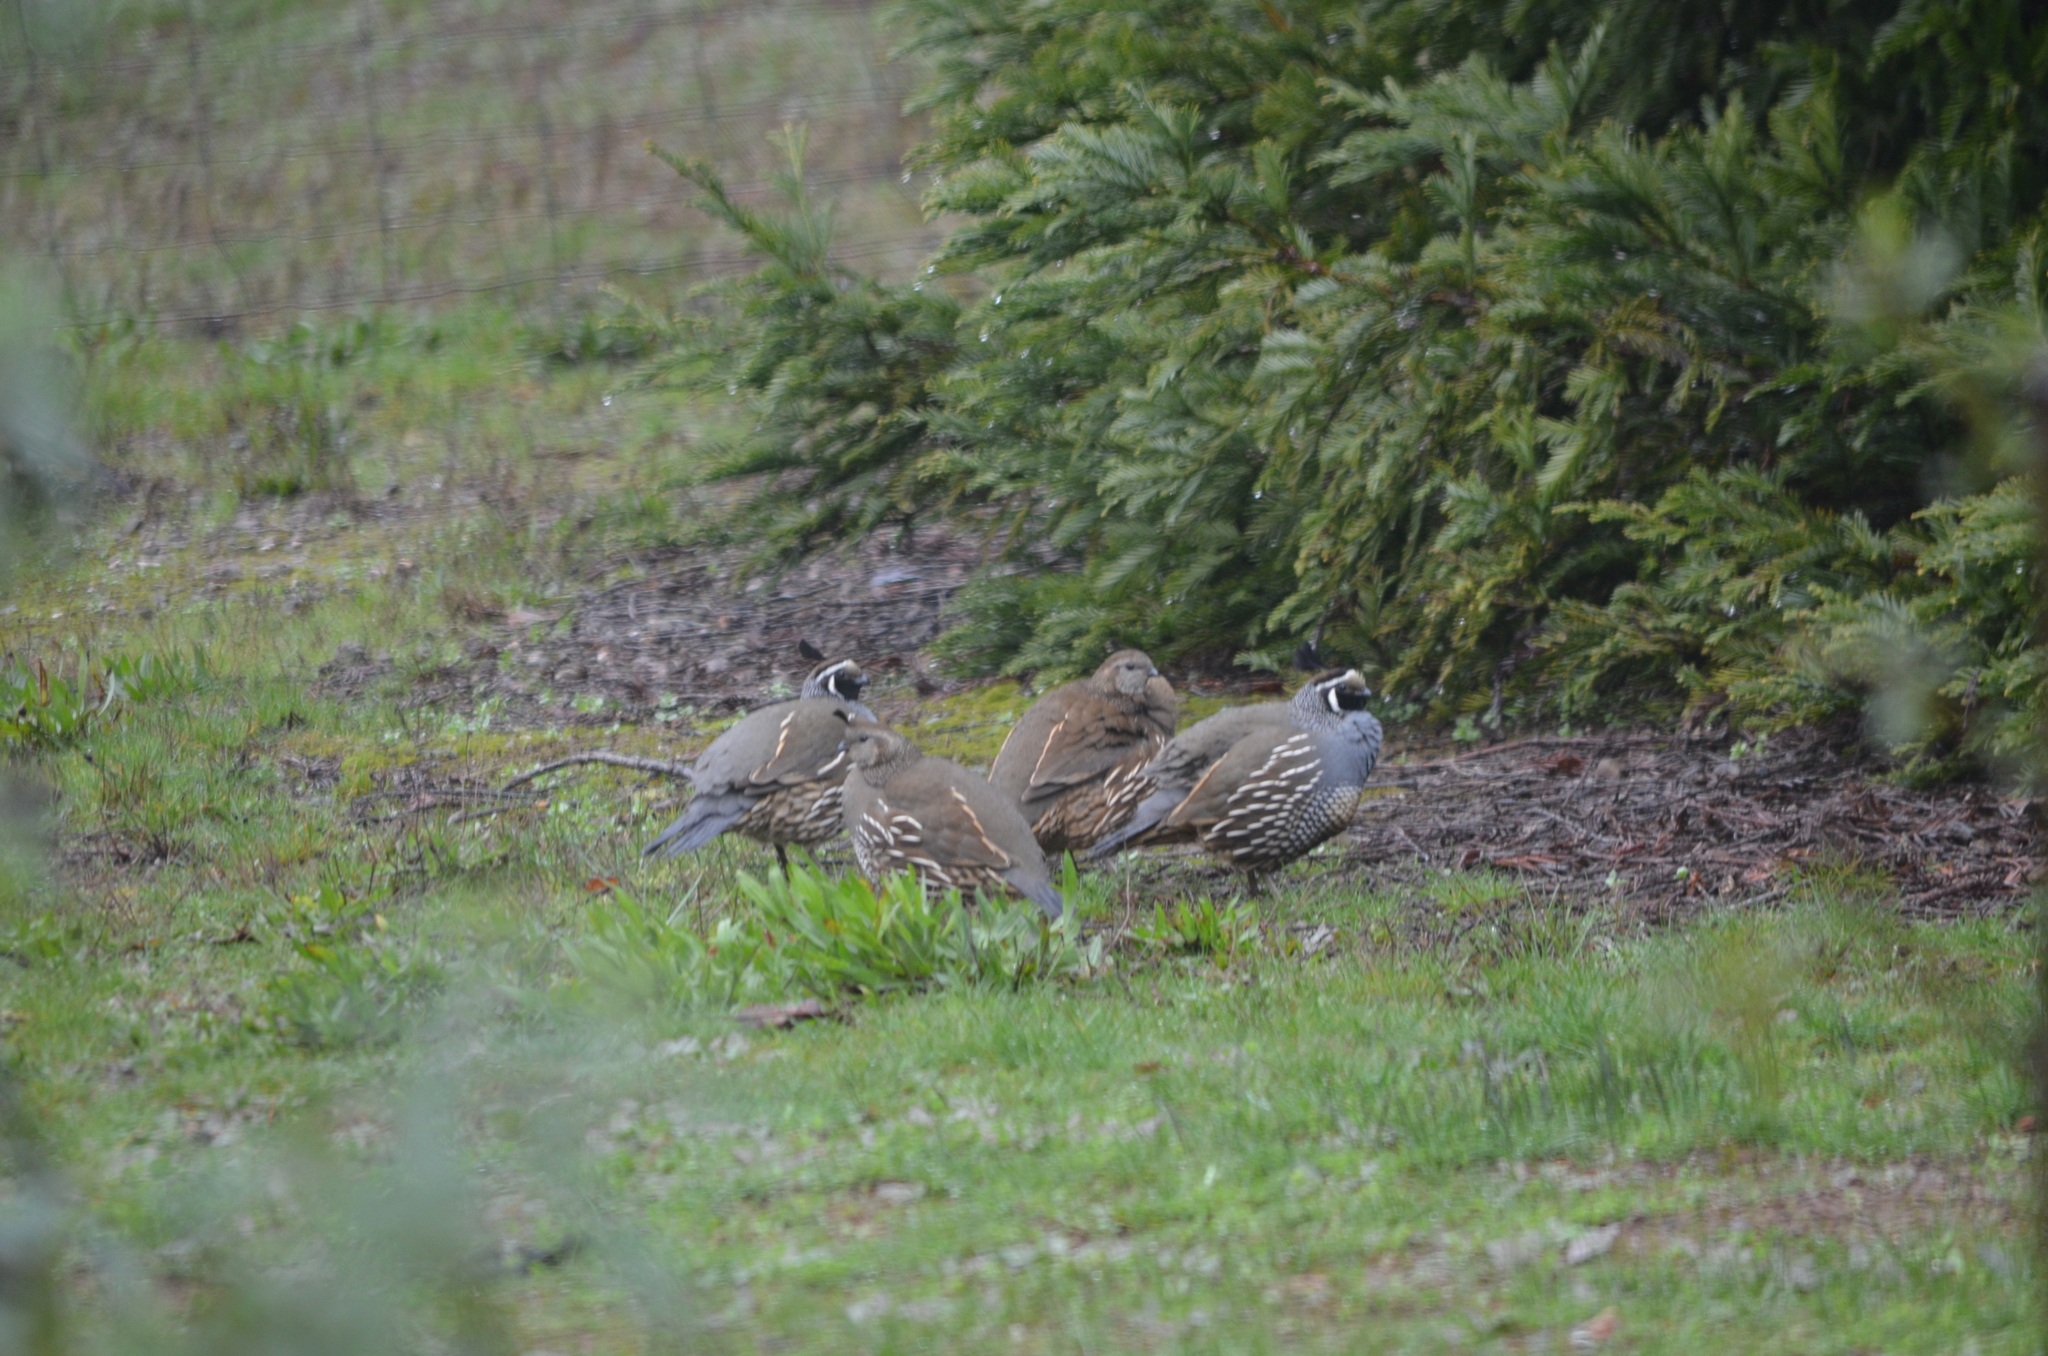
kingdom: Animalia
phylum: Chordata
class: Aves
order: Galliformes
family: Odontophoridae
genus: Callipepla
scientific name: Callipepla californica
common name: California quail
